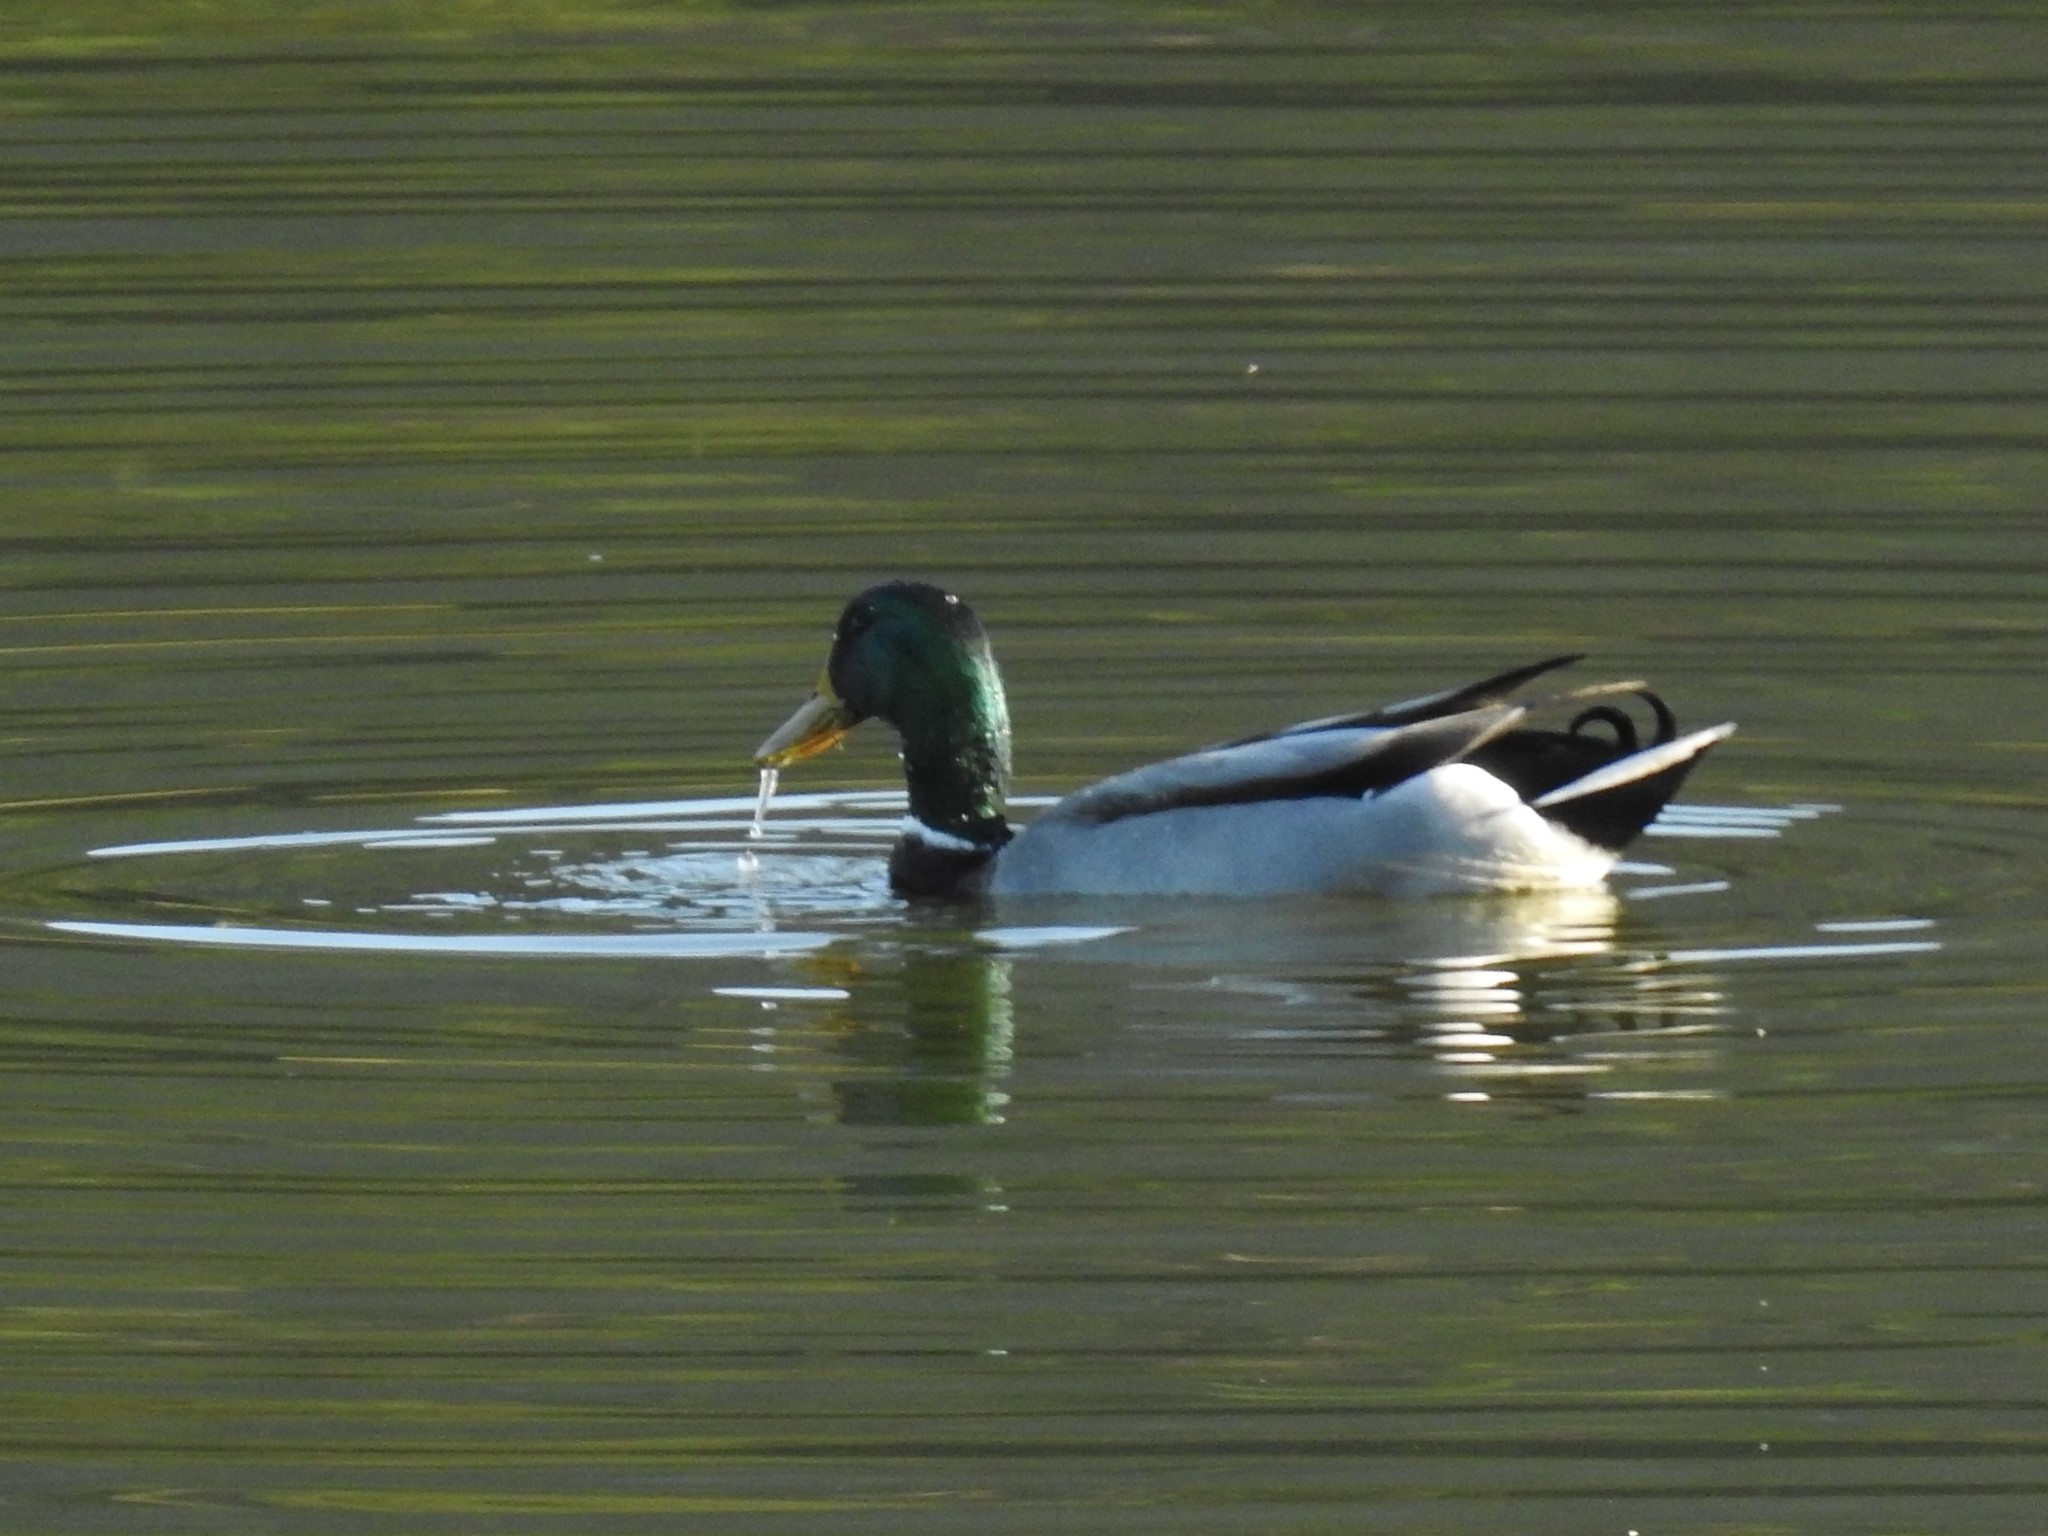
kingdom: Animalia
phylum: Chordata
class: Aves
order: Anseriformes
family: Anatidae
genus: Anas
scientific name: Anas platyrhynchos
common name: Mallard
